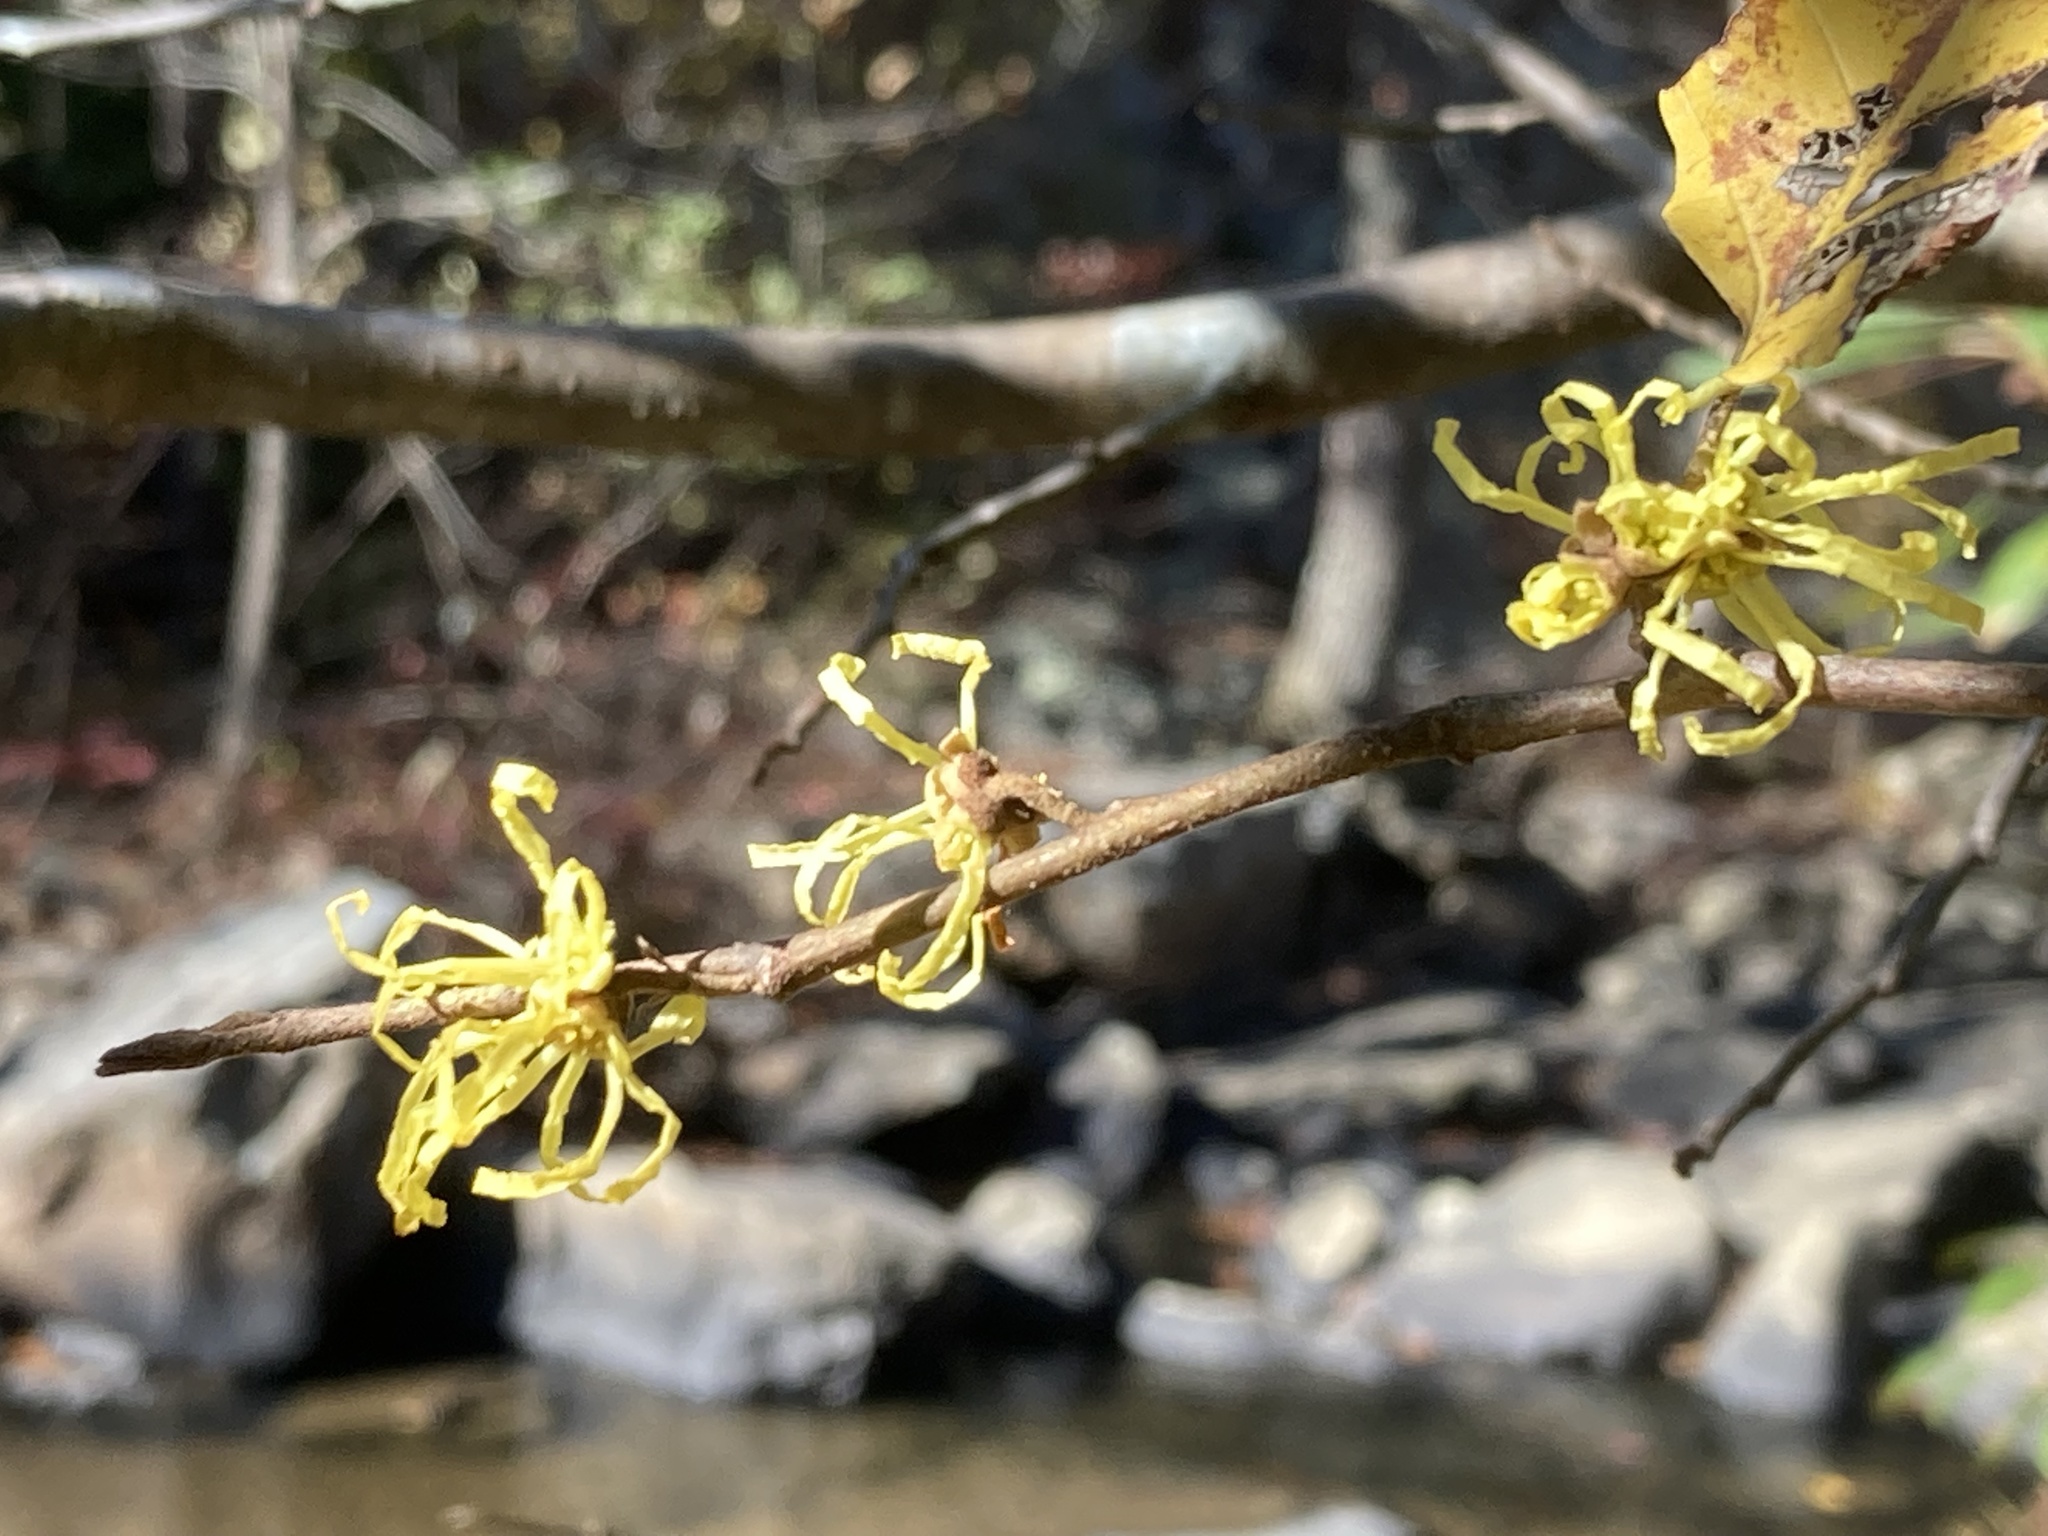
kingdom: Plantae
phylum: Tracheophyta
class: Magnoliopsida
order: Saxifragales
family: Hamamelidaceae
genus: Hamamelis
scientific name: Hamamelis virginiana
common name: Witch-hazel
